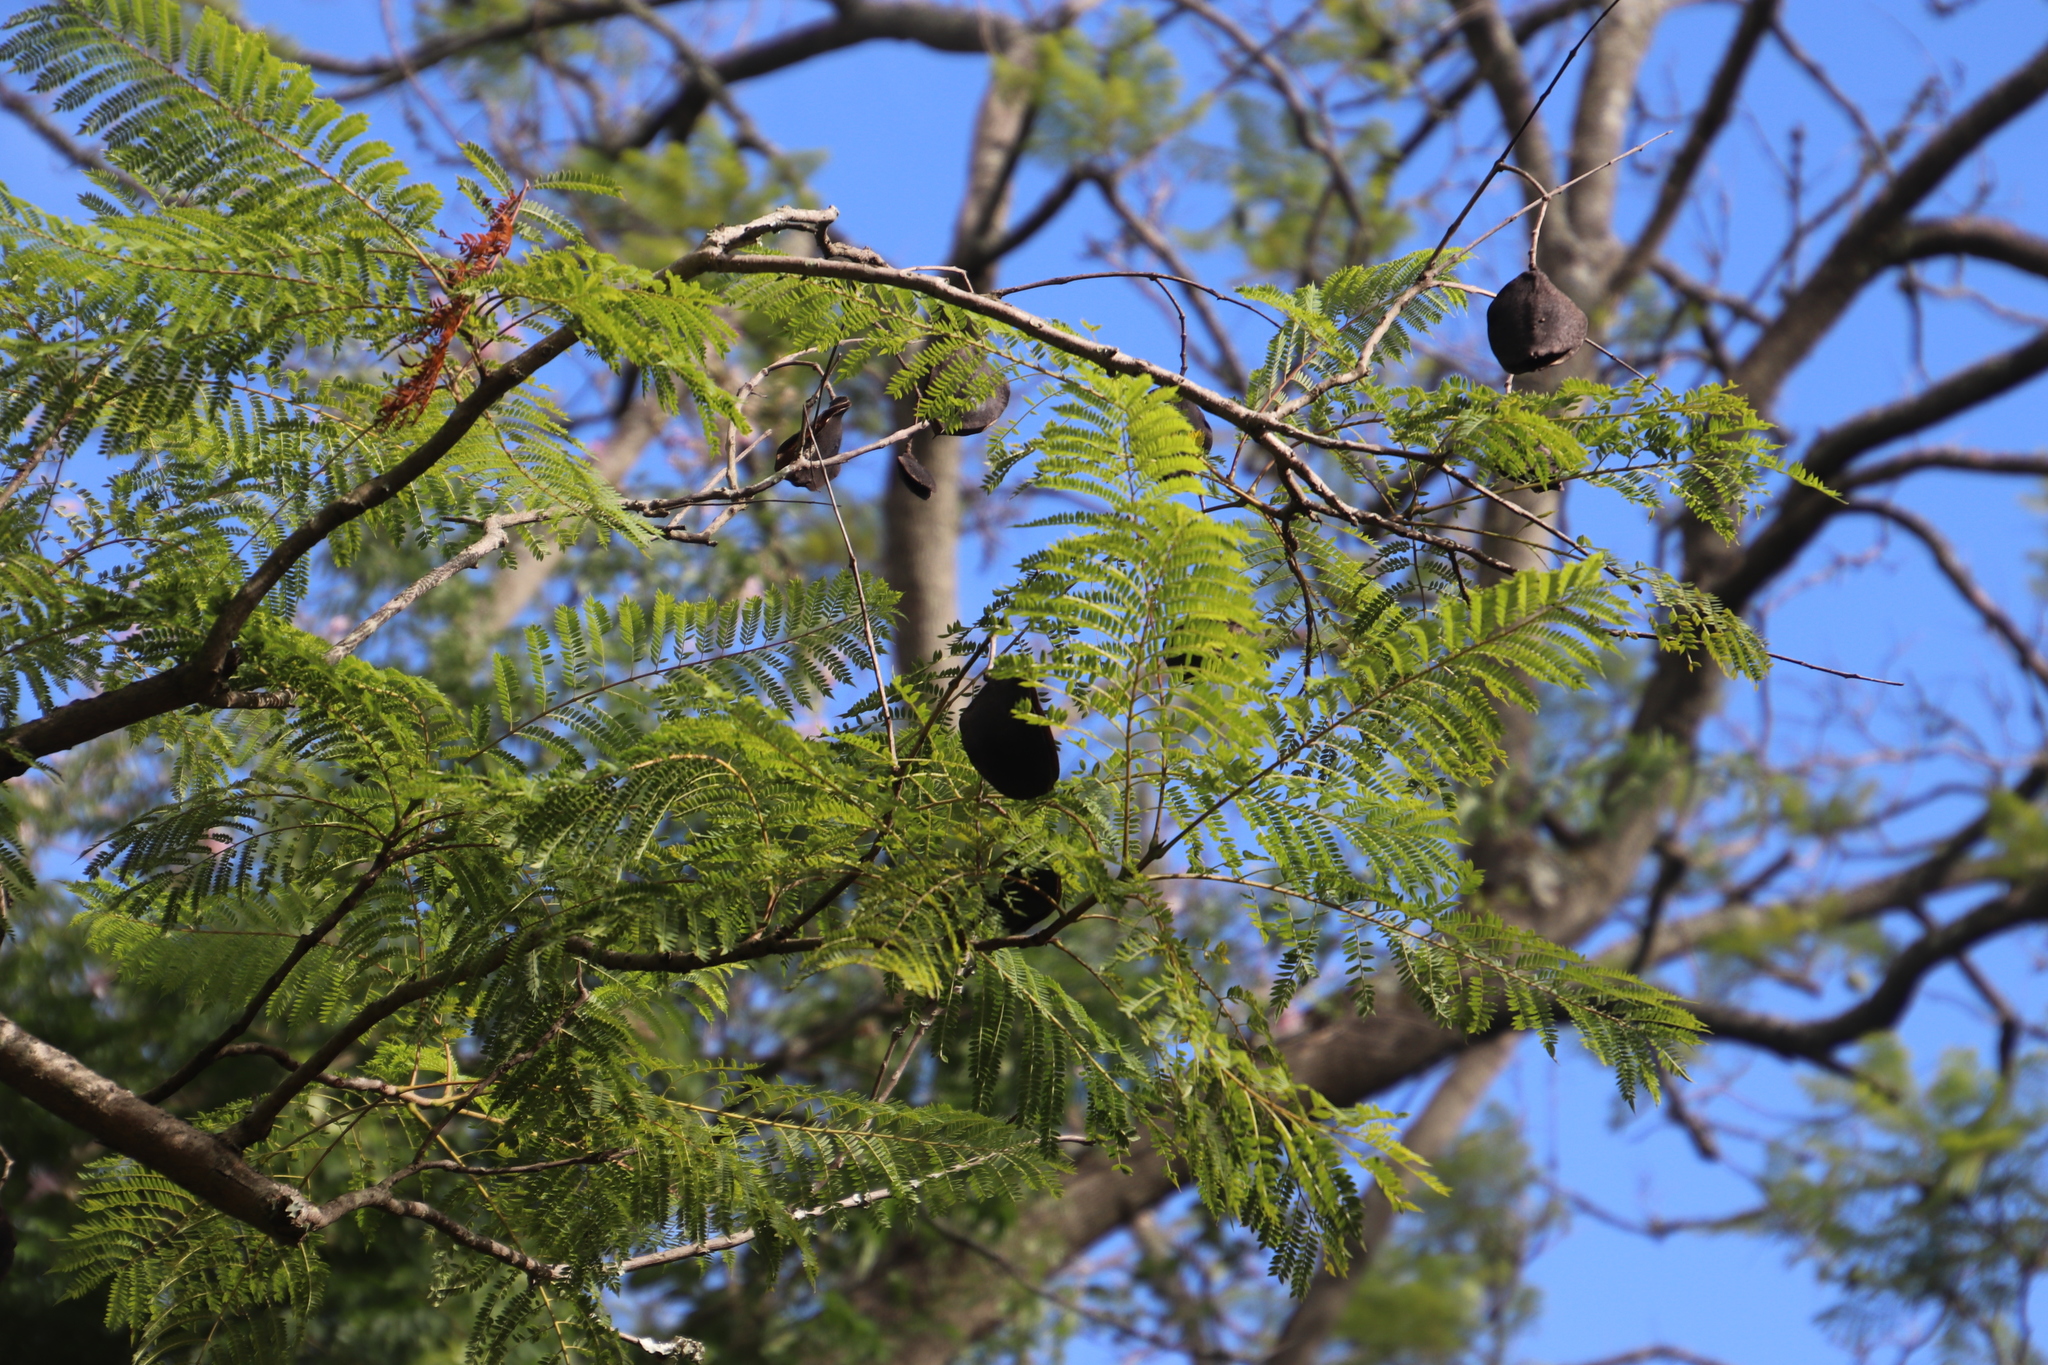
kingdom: Plantae
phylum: Tracheophyta
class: Magnoliopsida
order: Lamiales
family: Bignoniaceae
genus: Jacaranda
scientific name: Jacaranda mimosifolia
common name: Black poui
